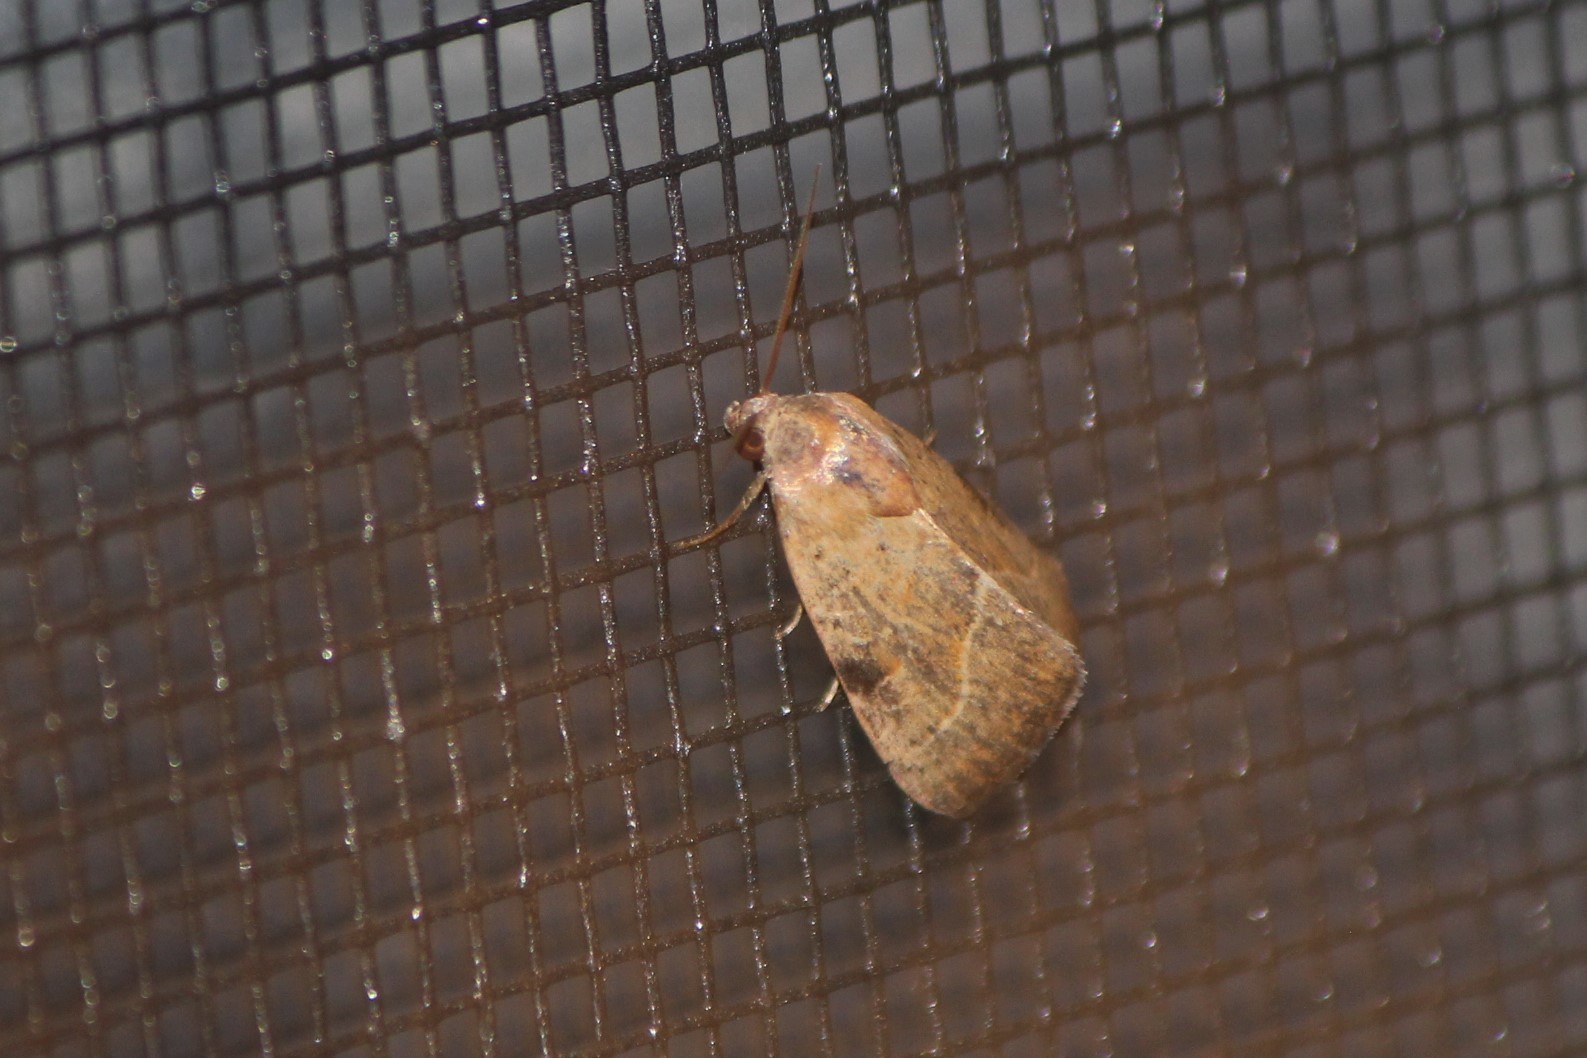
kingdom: Animalia
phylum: Arthropoda
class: Insecta
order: Lepidoptera
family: Noctuidae
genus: Galgula
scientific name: Galgula partita
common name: Wedgeling
